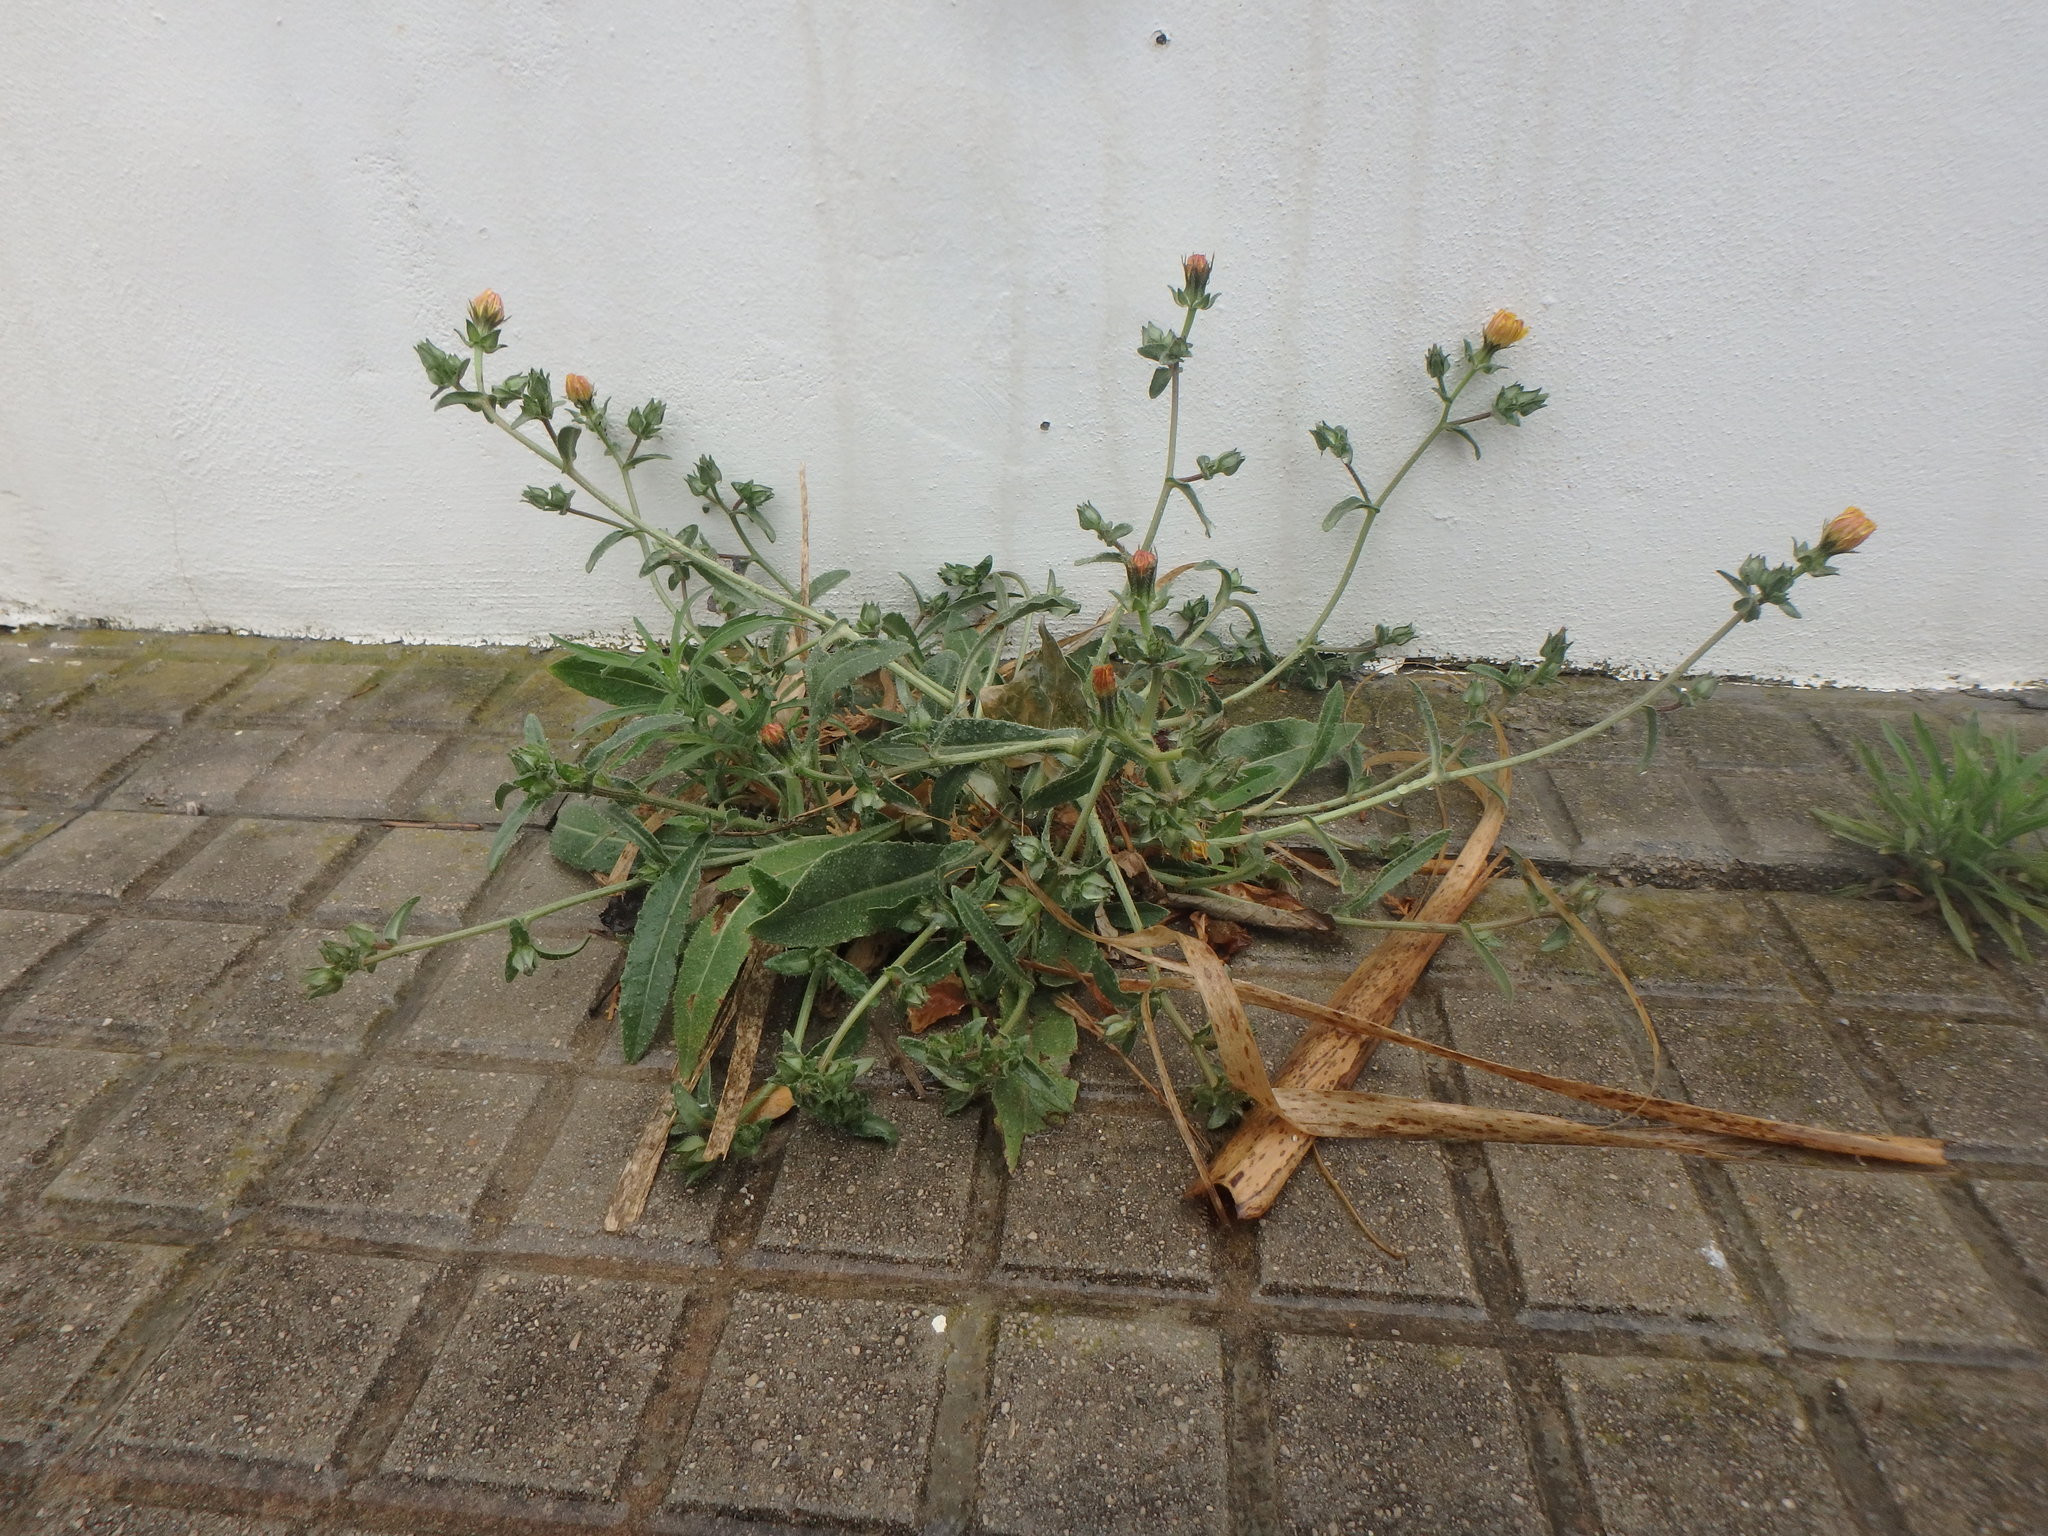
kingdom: Plantae
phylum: Tracheophyta
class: Magnoliopsida
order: Asterales
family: Asteraceae
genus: Helminthotheca
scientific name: Helminthotheca echioides
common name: Ox-tongue
